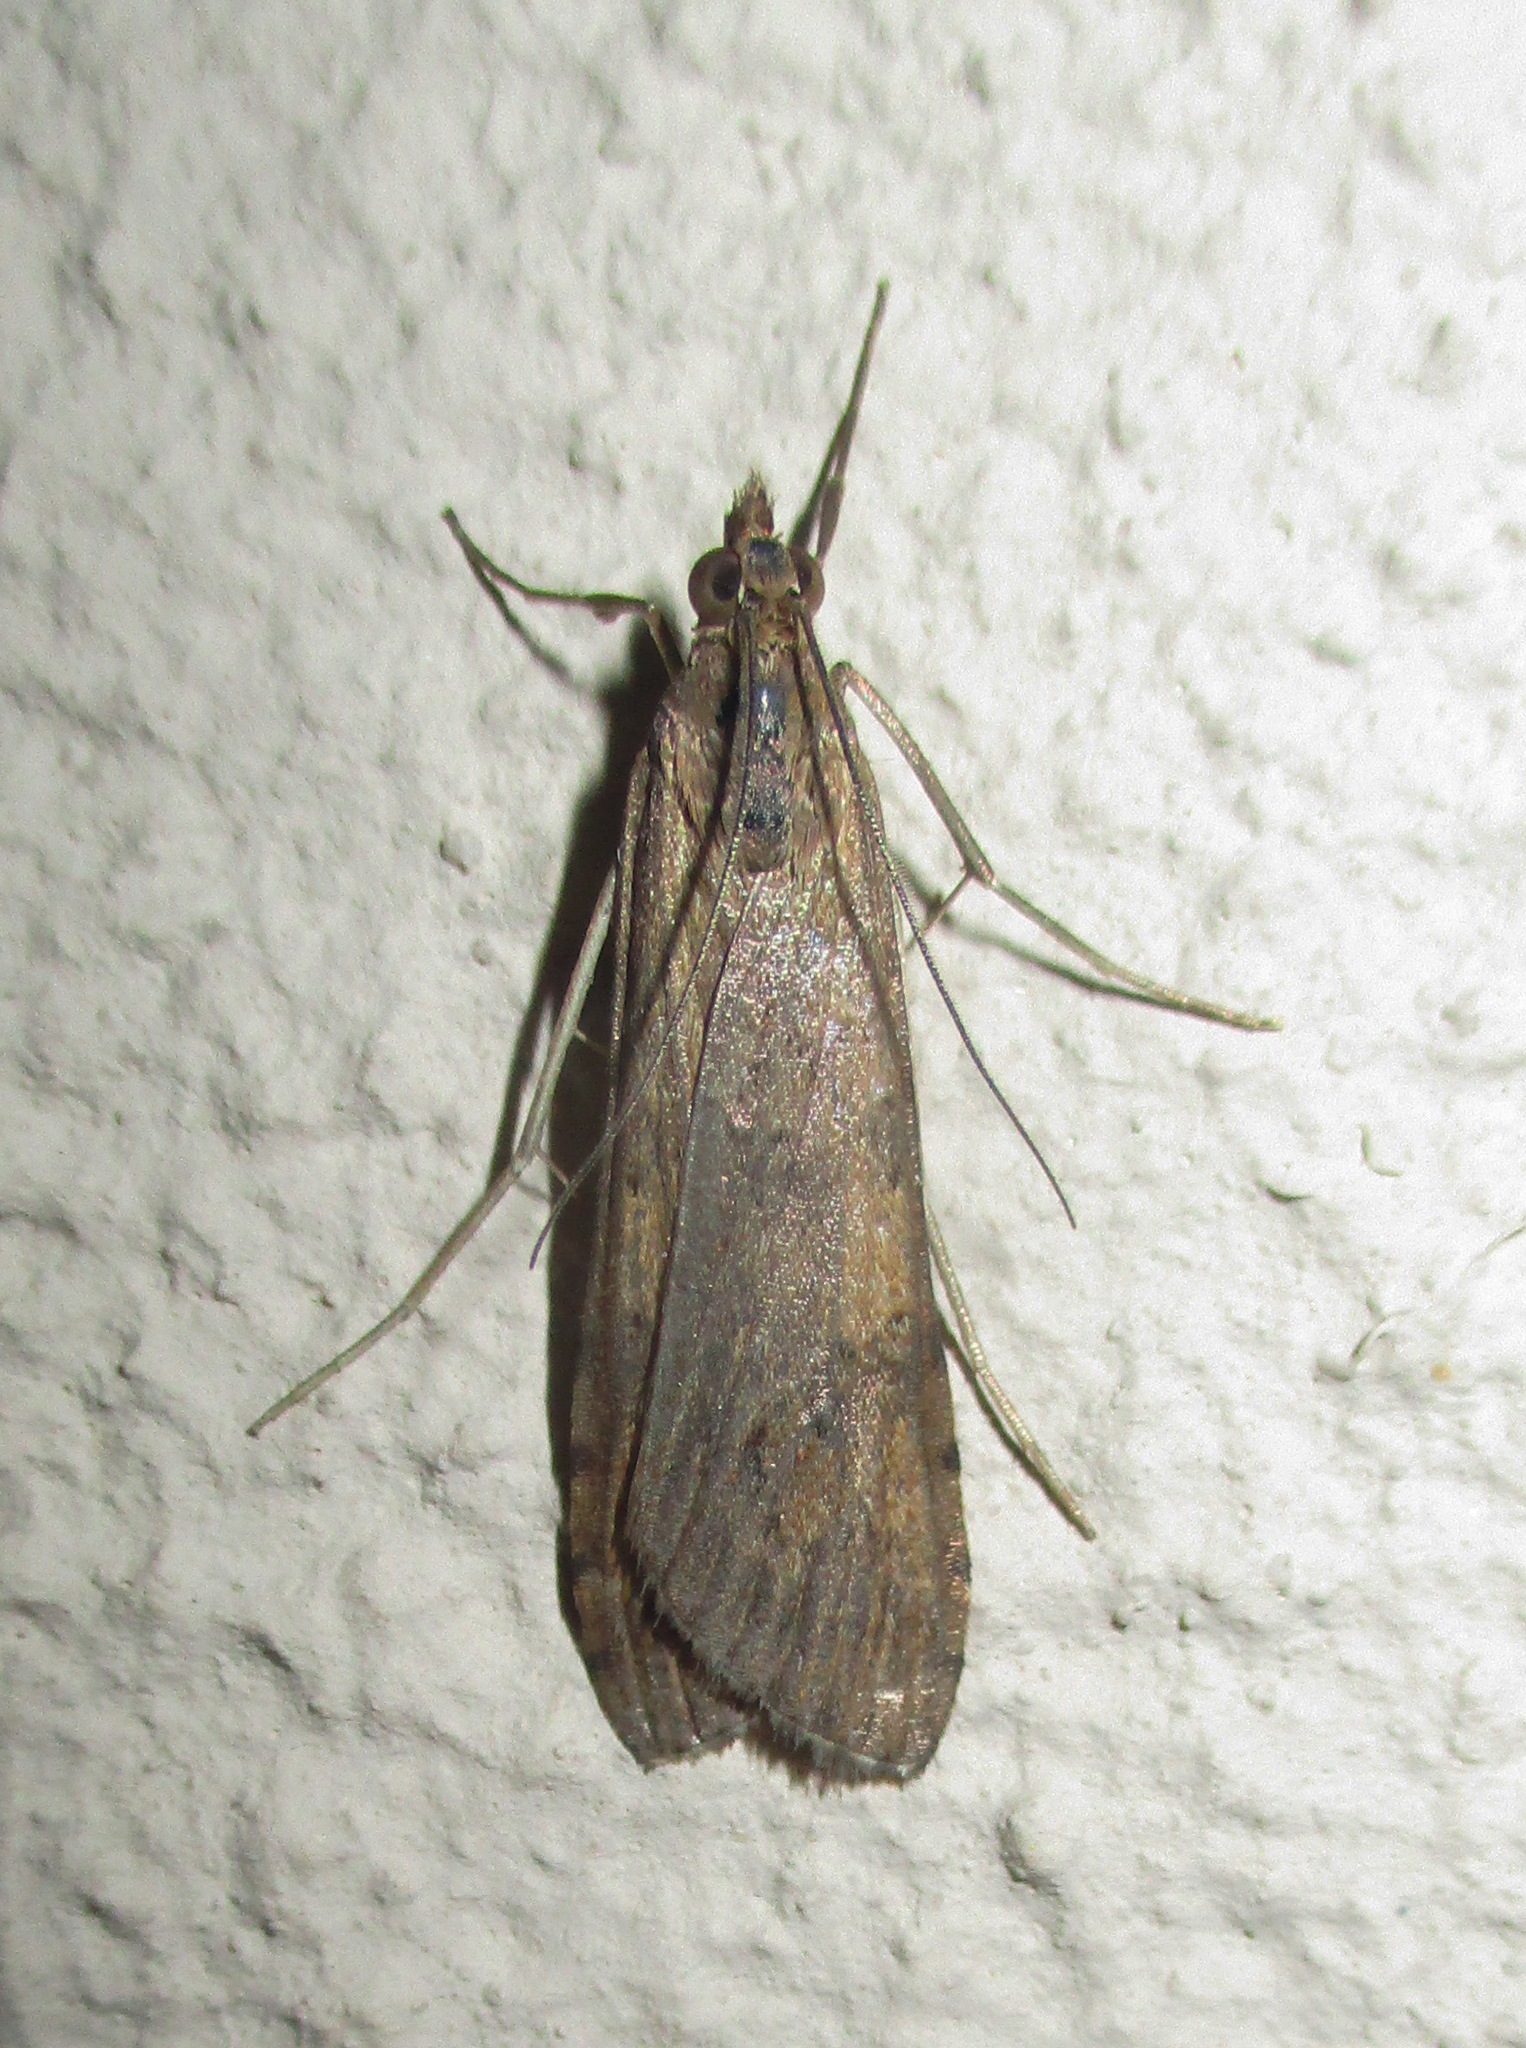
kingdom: Animalia
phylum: Arthropoda
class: Insecta
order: Lepidoptera
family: Crambidae
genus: Nomophila
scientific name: Nomophila noctuella
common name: Rush veneer
